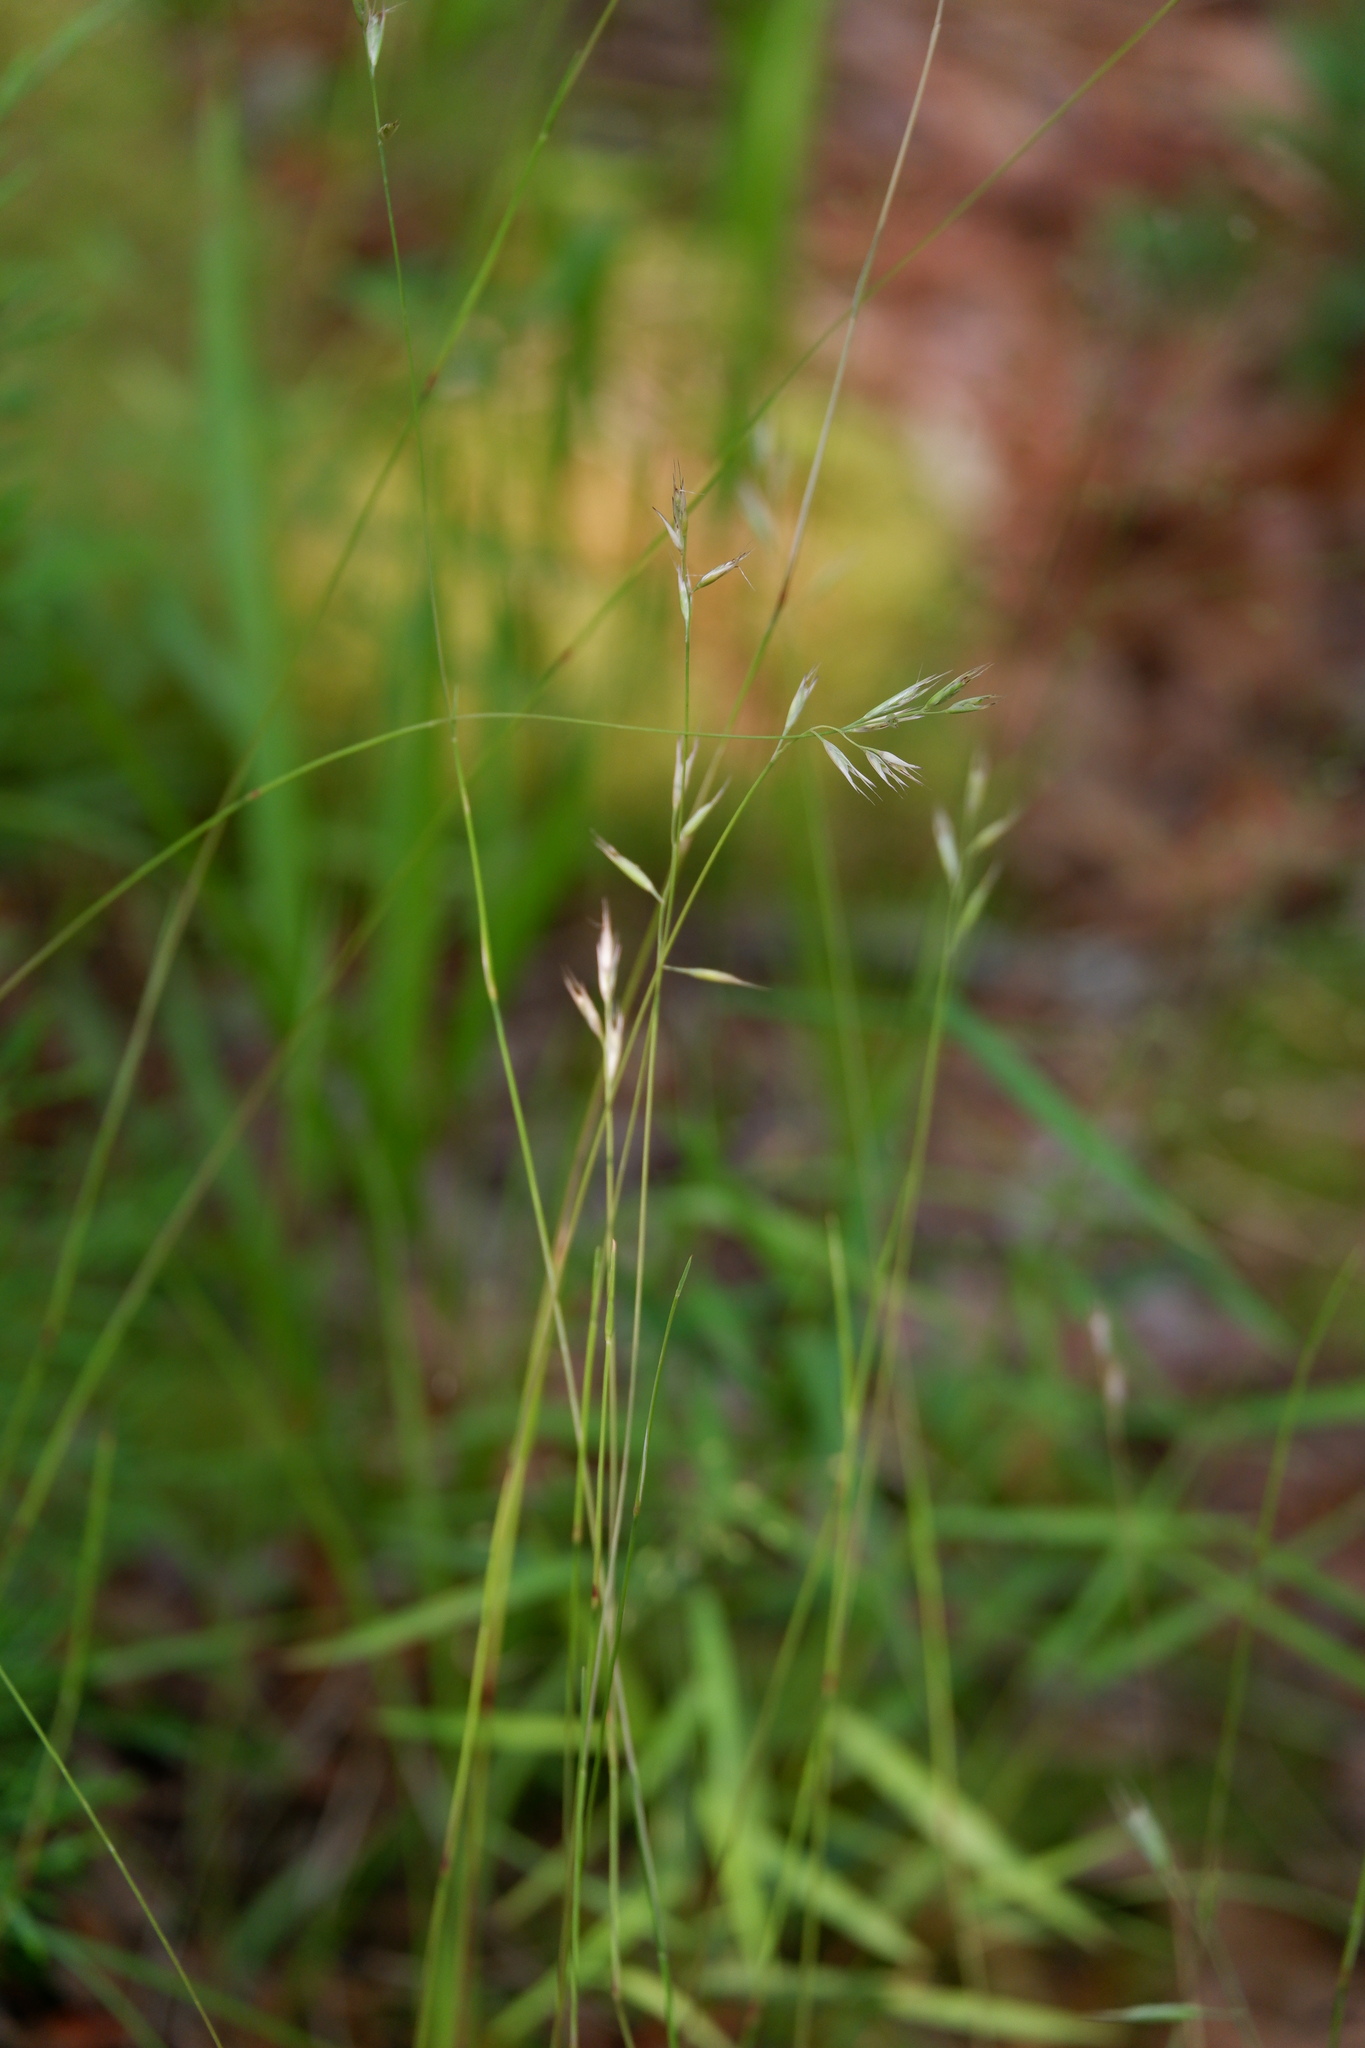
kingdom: Plantae
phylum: Tracheophyta
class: Liliopsida
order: Poales
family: Poaceae
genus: Danthonia
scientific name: Danthonia spicata
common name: Common wild oatgrass
